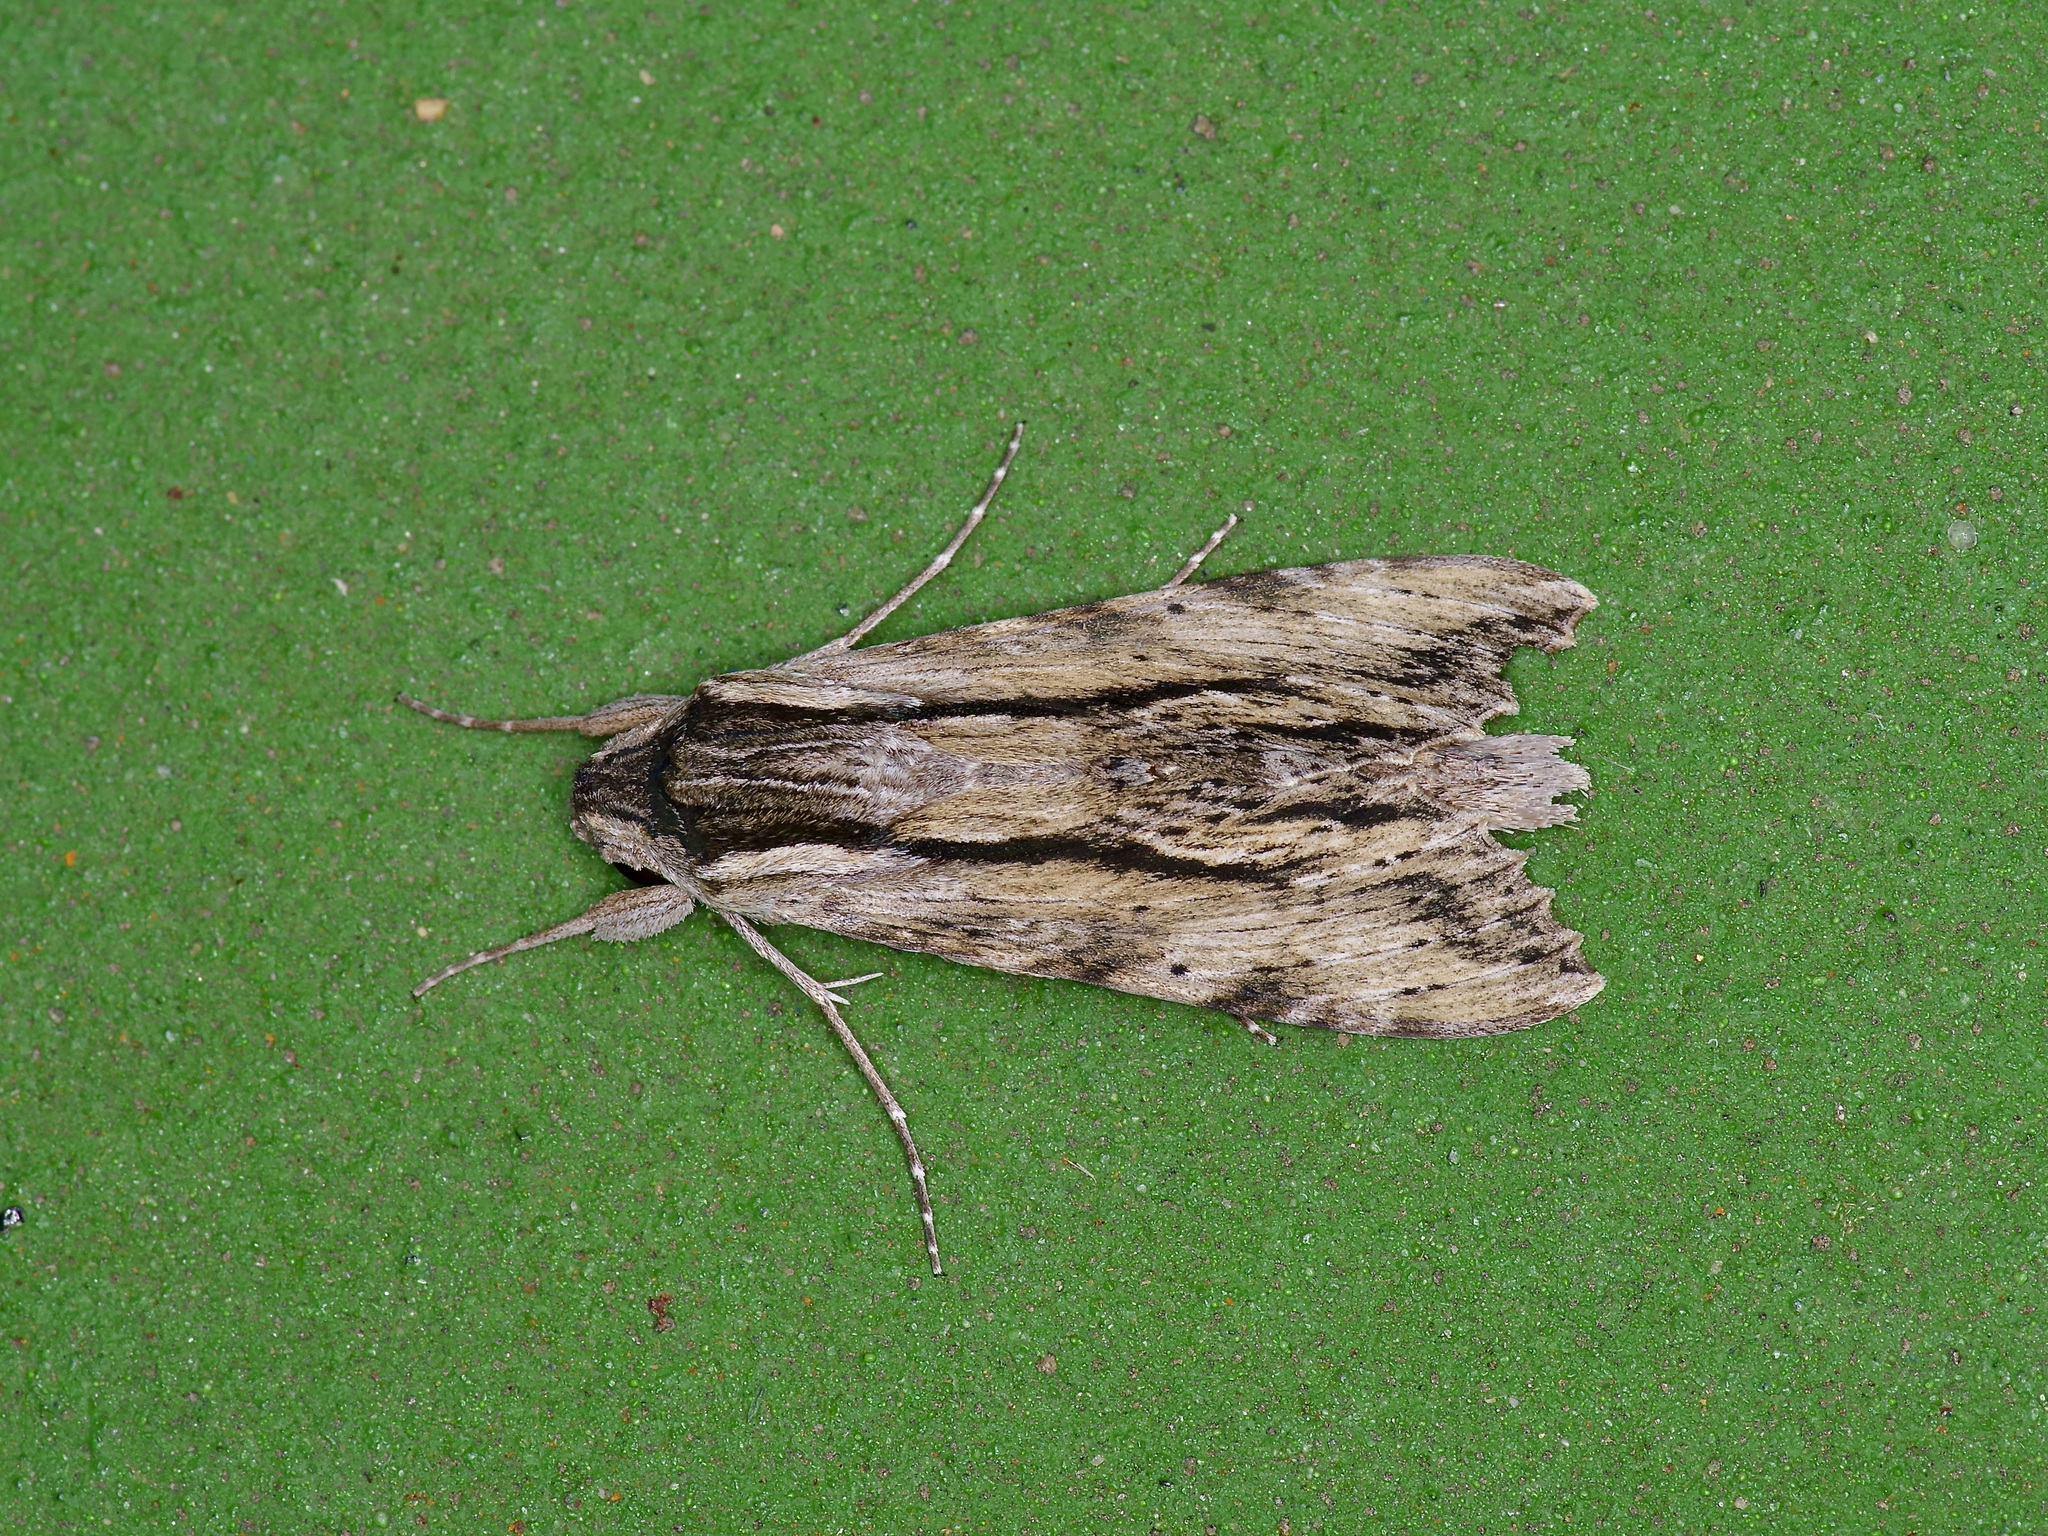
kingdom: Animalia
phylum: Arthropoda
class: Insecta
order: Lepidoptera
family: Sphingidae
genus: Erinnyis
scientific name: Erinnyis obscura
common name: Obscure sphinx
